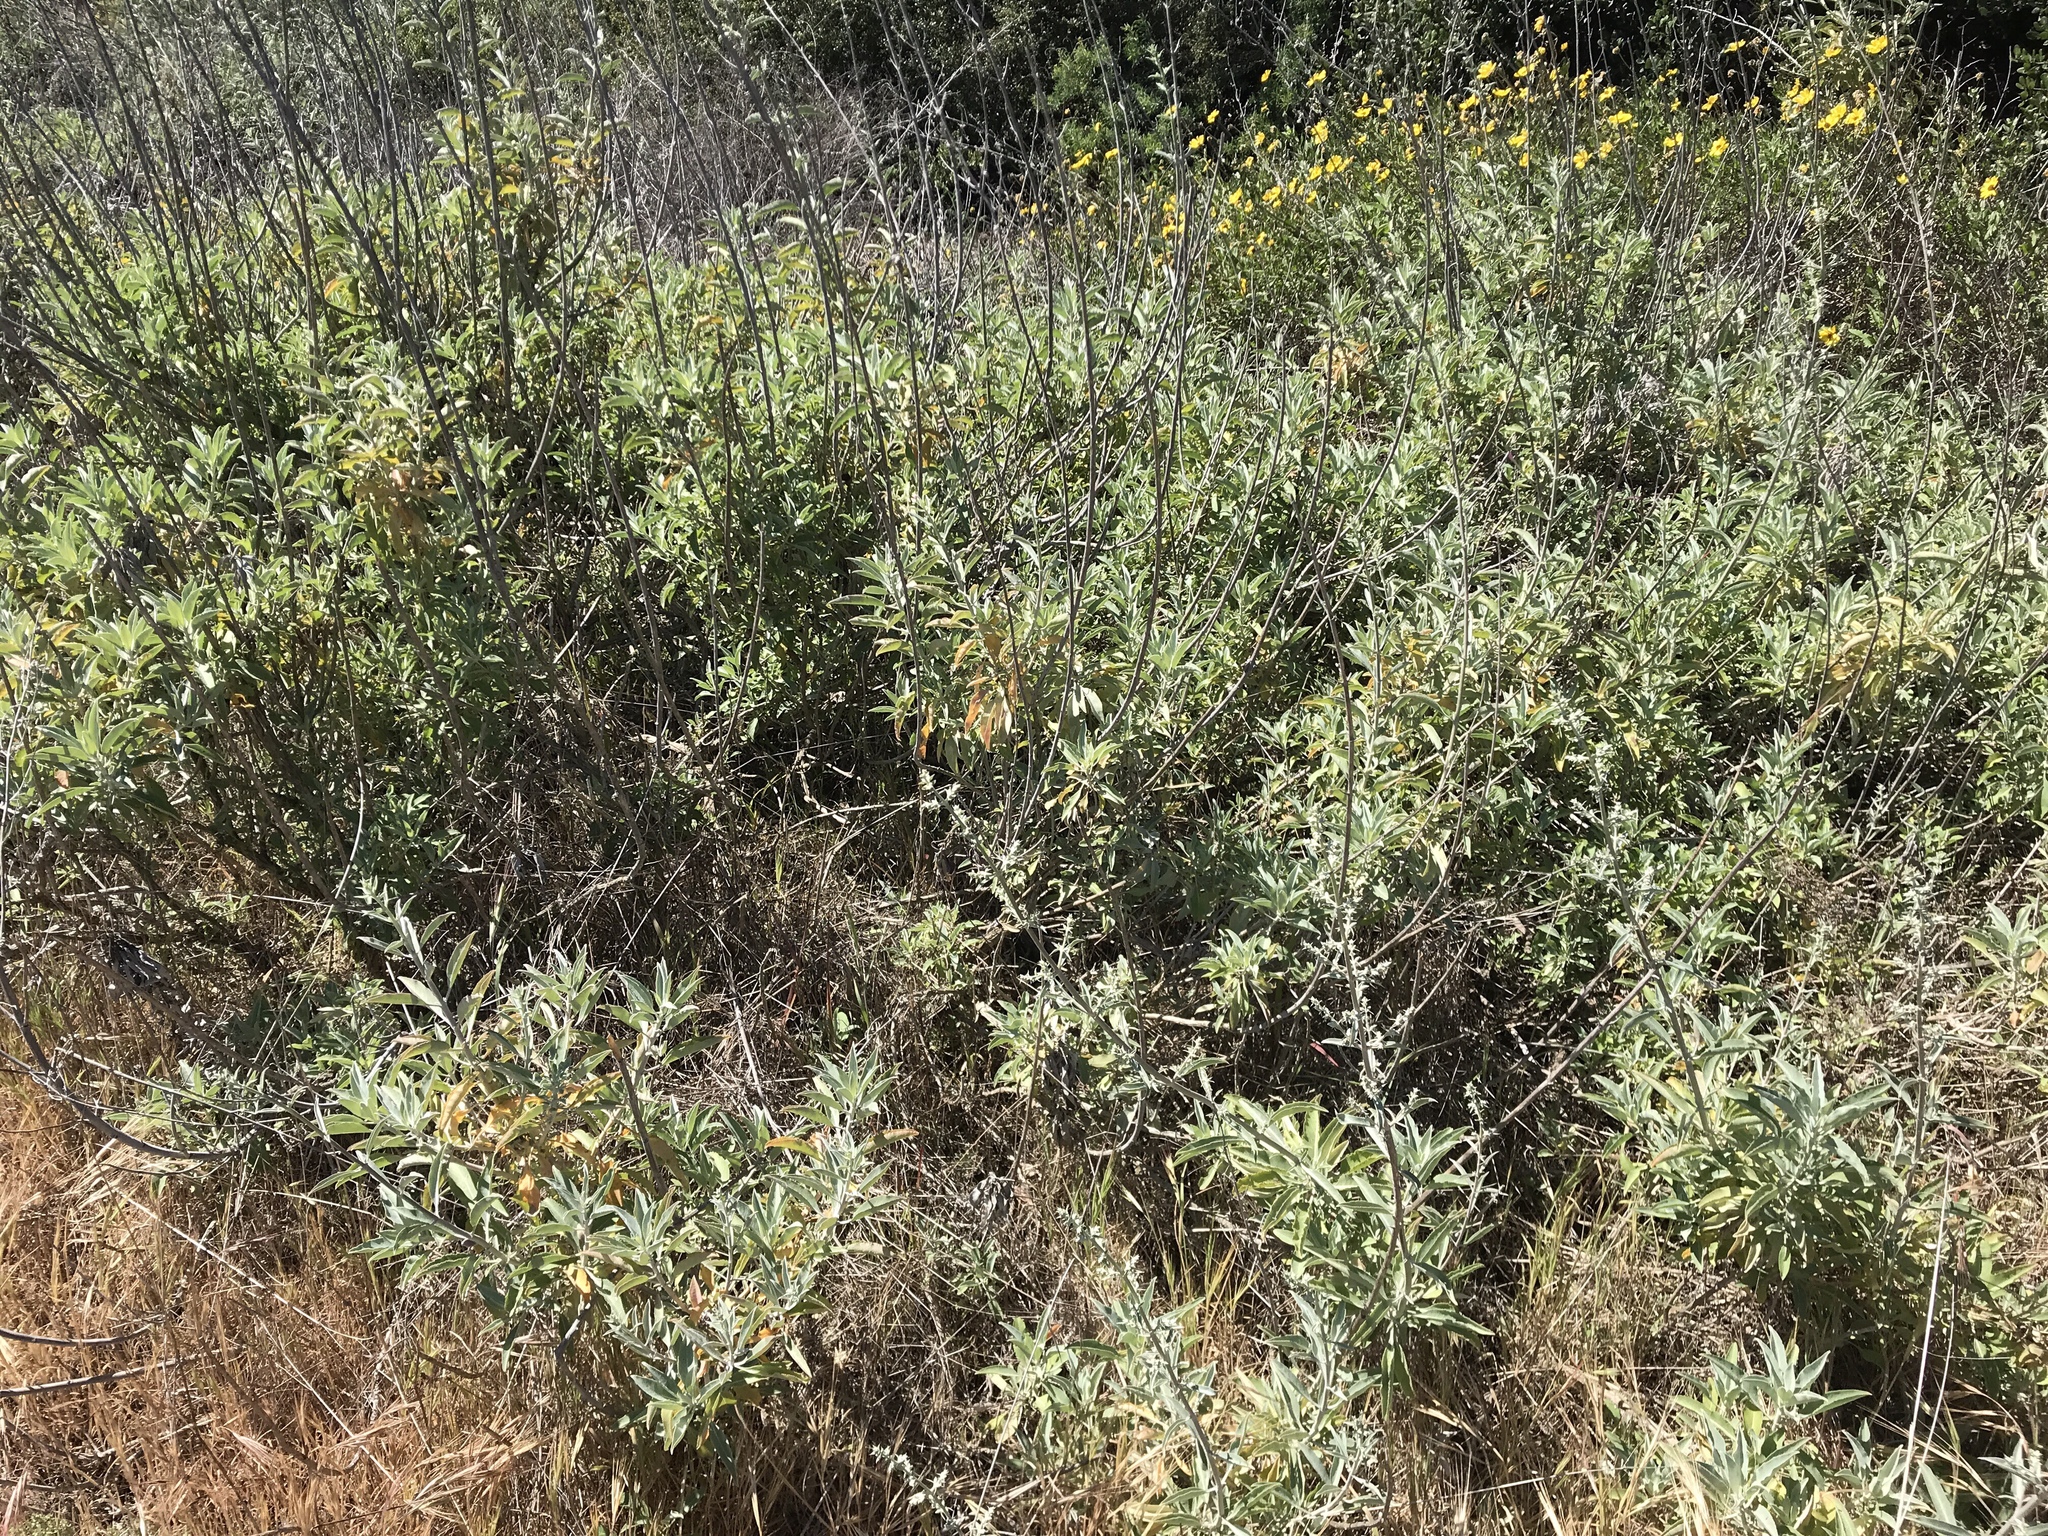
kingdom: Plantae
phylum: Tracheophyta
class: Magnoliopsida
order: Lamiales
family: Lamiaceae
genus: Salvia
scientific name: Salvia apiana
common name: White sage
